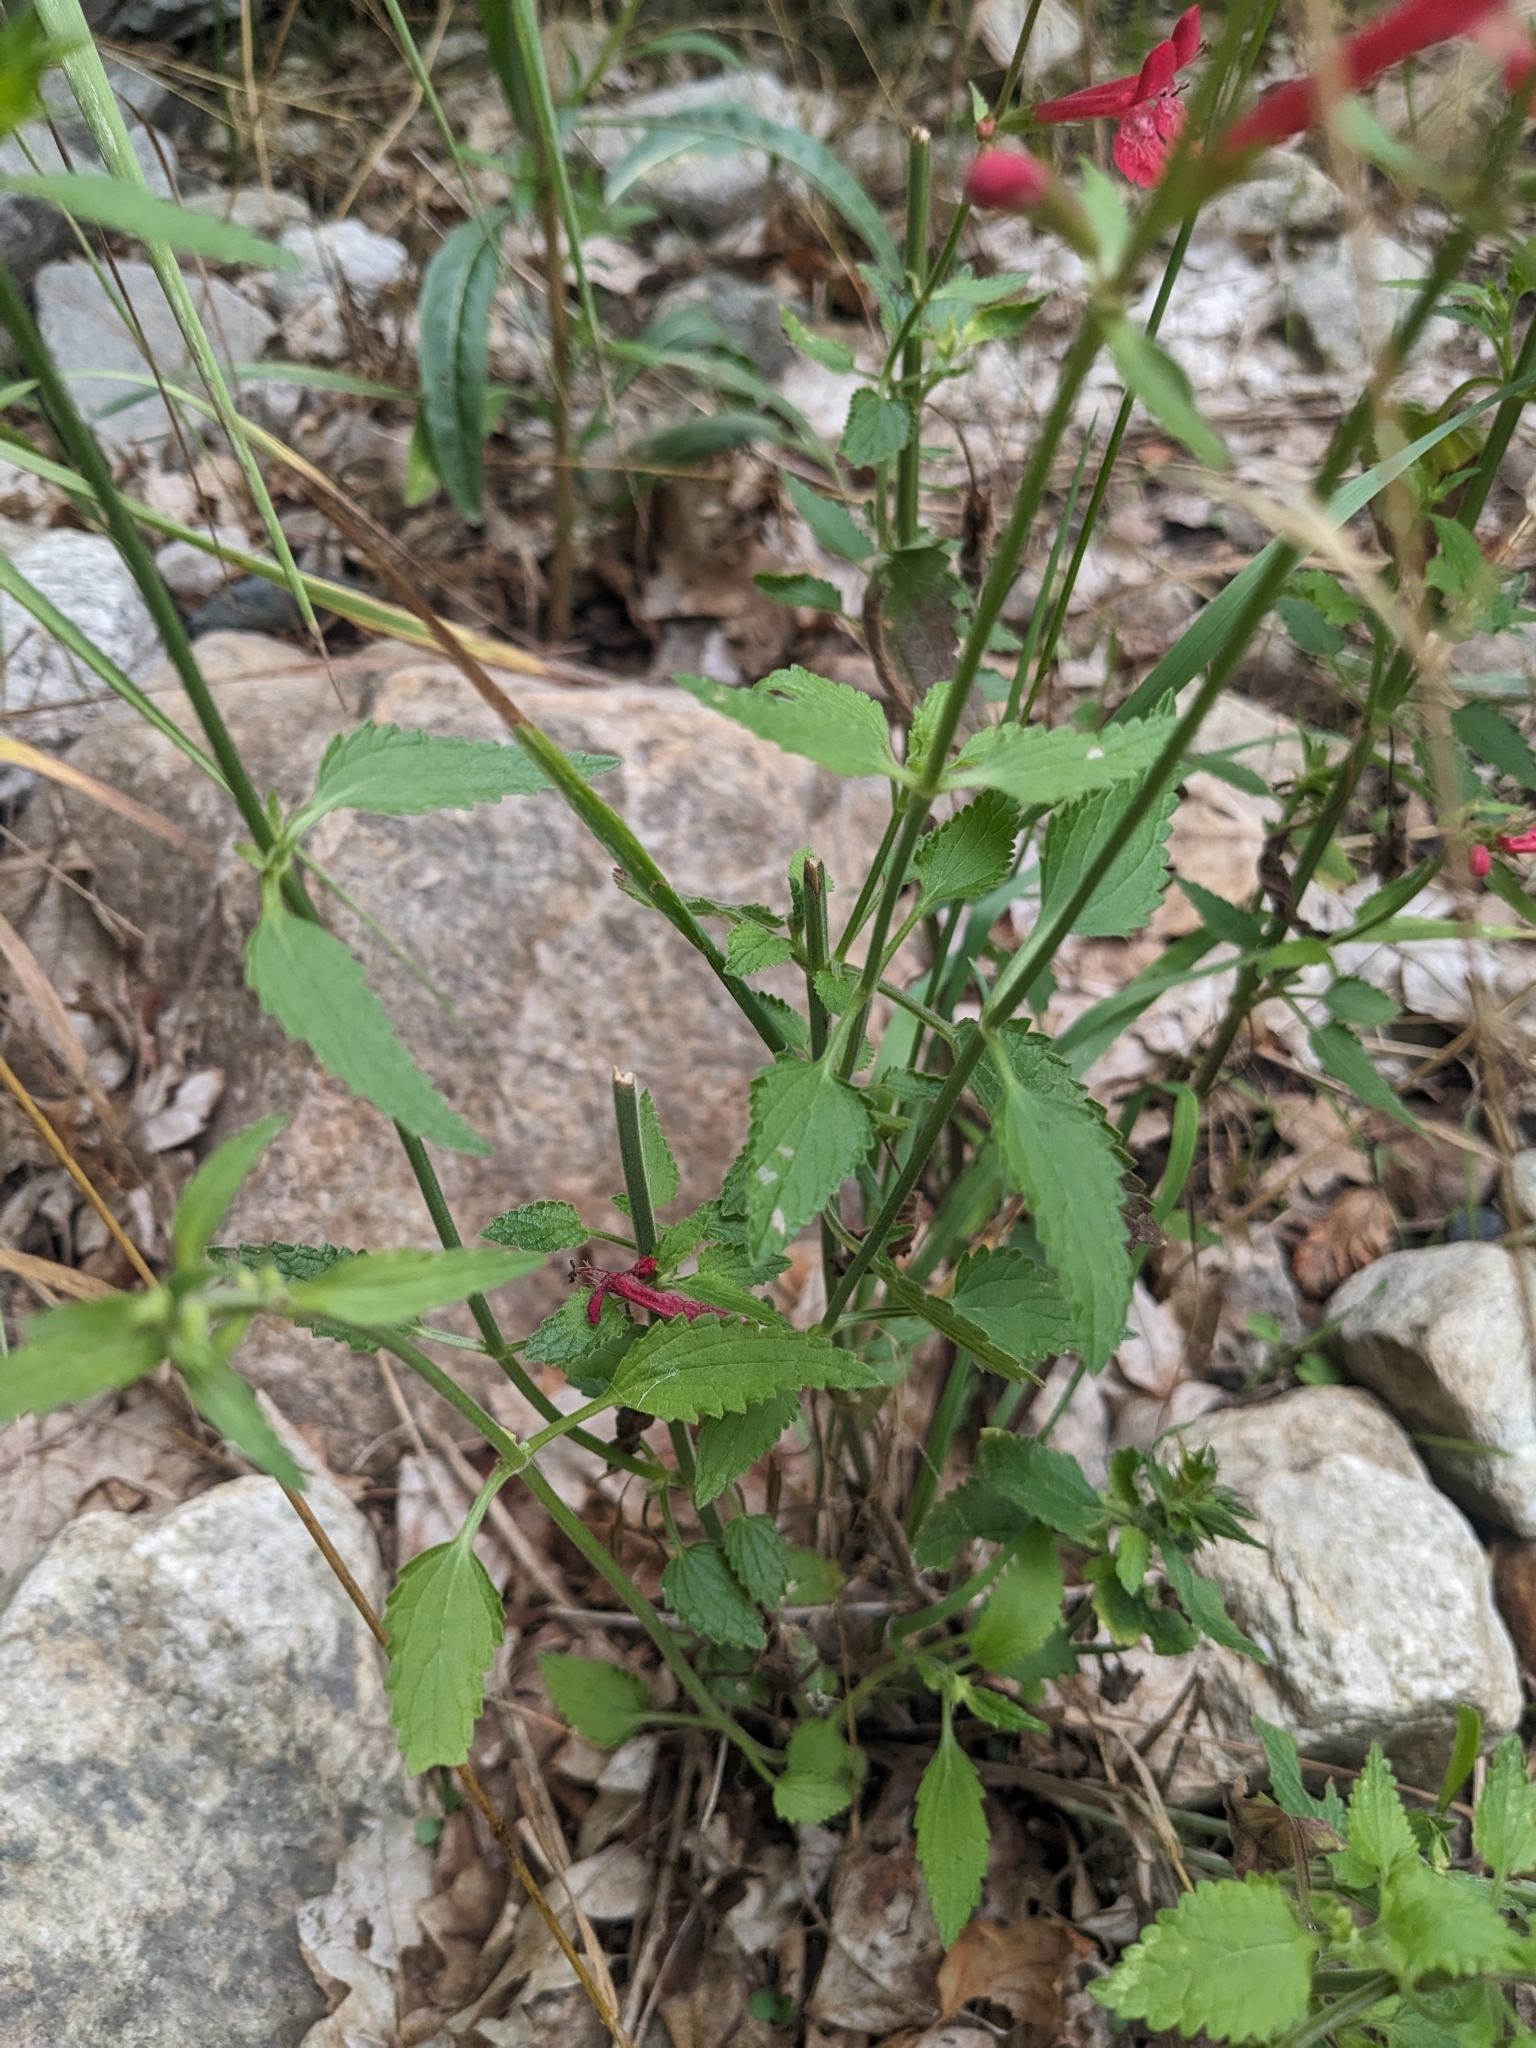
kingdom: Plantae
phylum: Tracheophyta
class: Magnoliopsida
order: Lamiales
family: Lamiaceae
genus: Stachys
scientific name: Stachys coccinea
